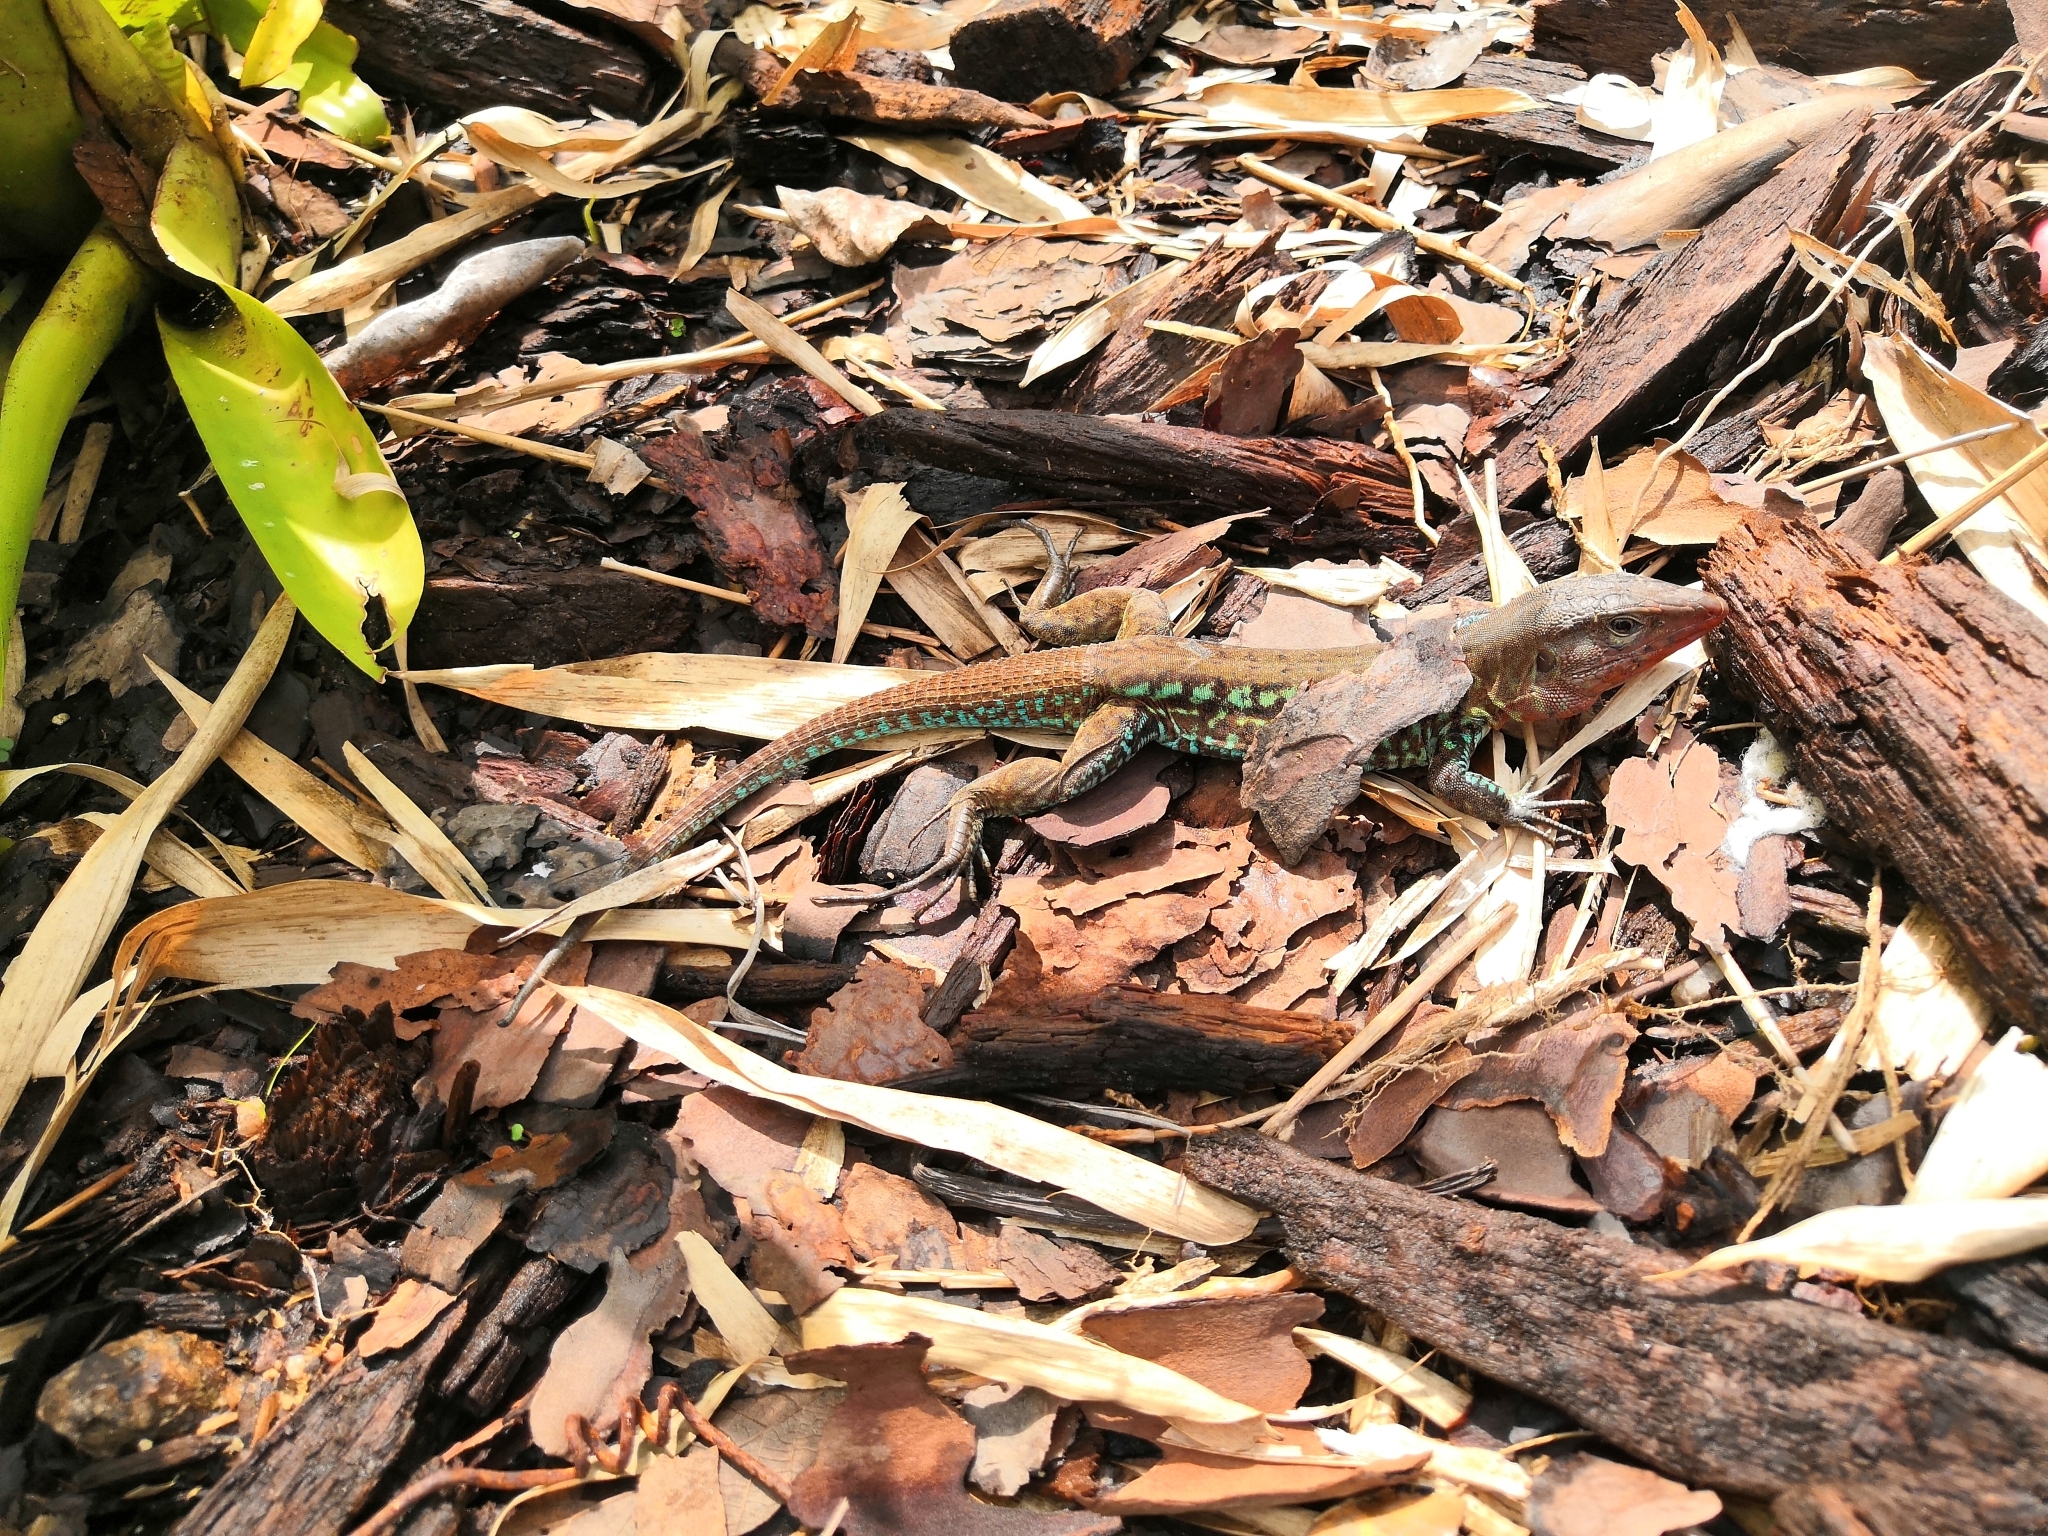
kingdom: Animalia
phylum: Chordata
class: Squamata
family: Teiidae
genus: Holcosus
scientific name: Holcosus undulatus
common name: Rainbow ameiva
